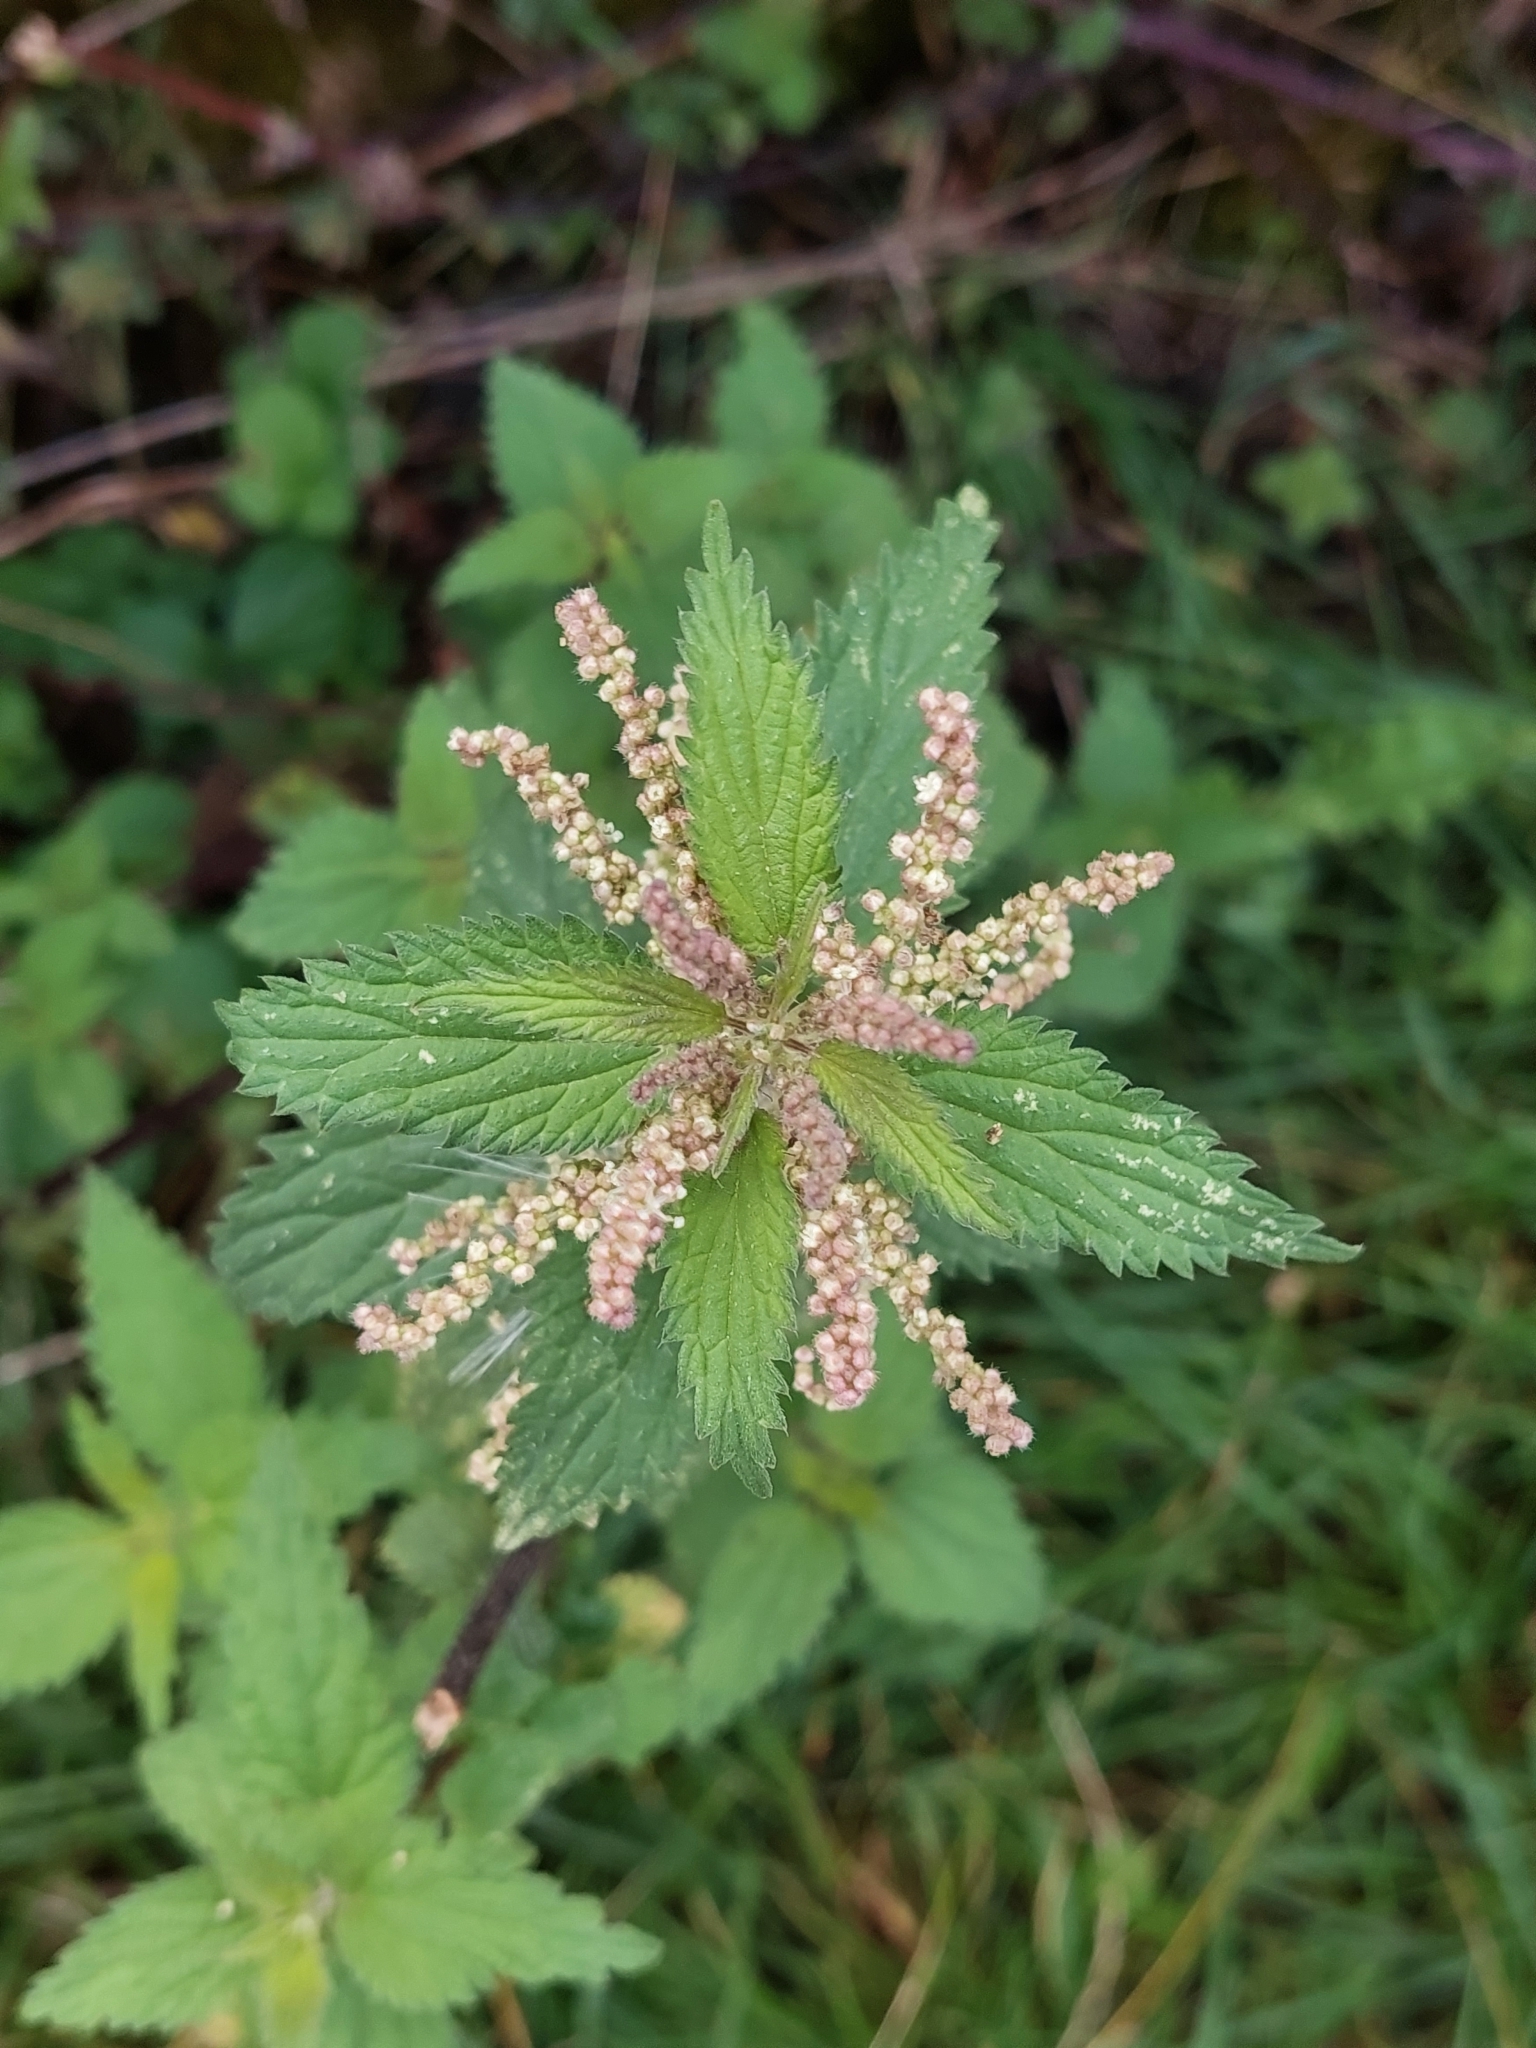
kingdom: Plantae
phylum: Tracheophyta
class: Magnoliopsida
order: Rosales
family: Urticaceae
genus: Urtica
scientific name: Urtica dioica
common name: Common nettle
